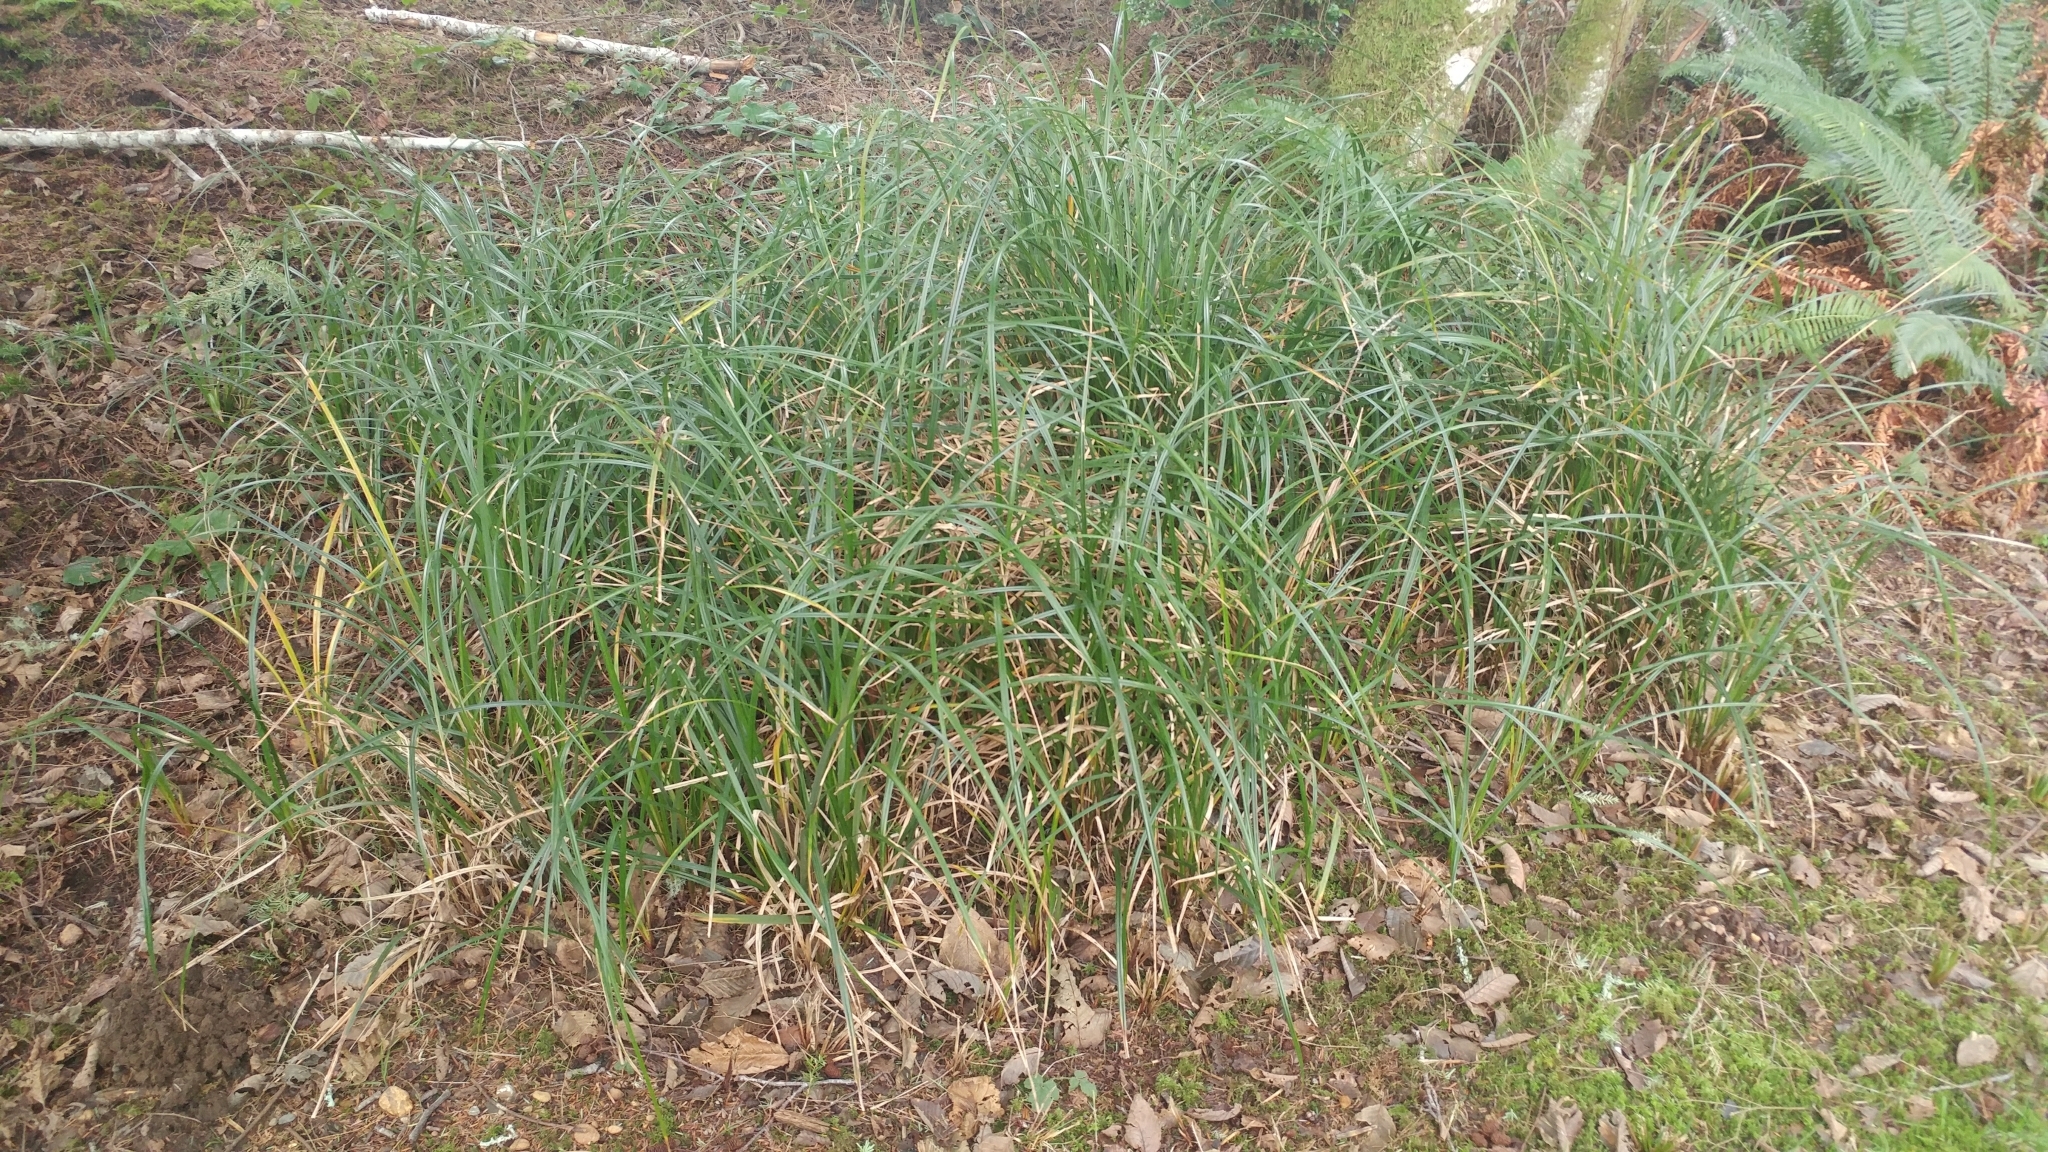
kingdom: Plantae
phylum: Tracheophyta
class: Liliopsida
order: Poales
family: Cyperaceae
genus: Carex
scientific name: Carex obnupta
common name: Slough sedge
